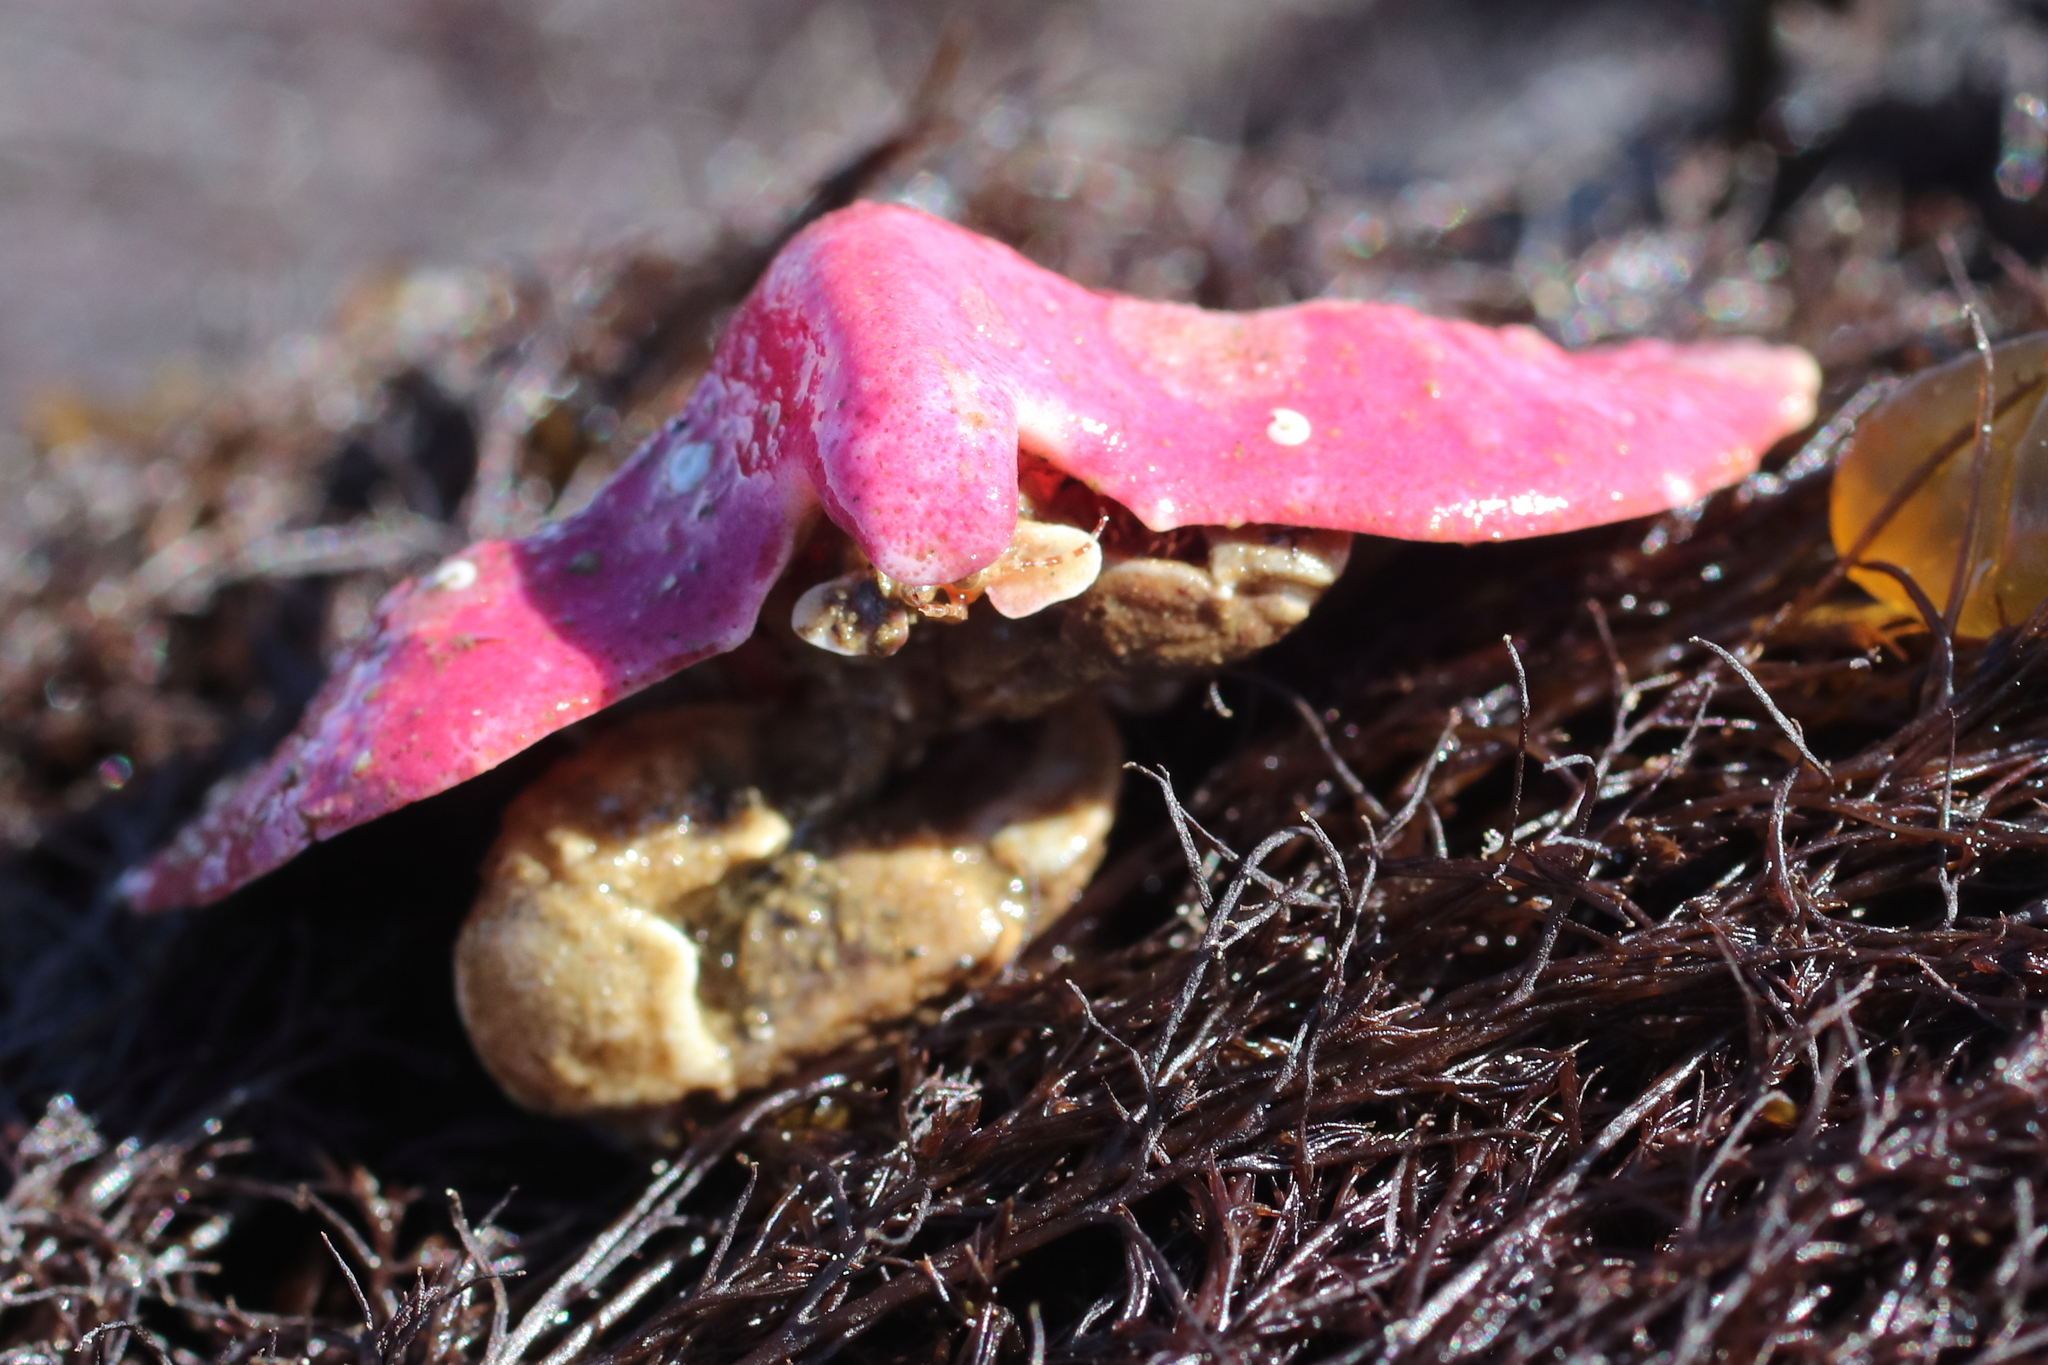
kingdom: Animalia
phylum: Arthropoda
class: Malacostraca
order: Decapoda
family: Lithodidae
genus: Cryptolithodes
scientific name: Cryptolithodes typicus
